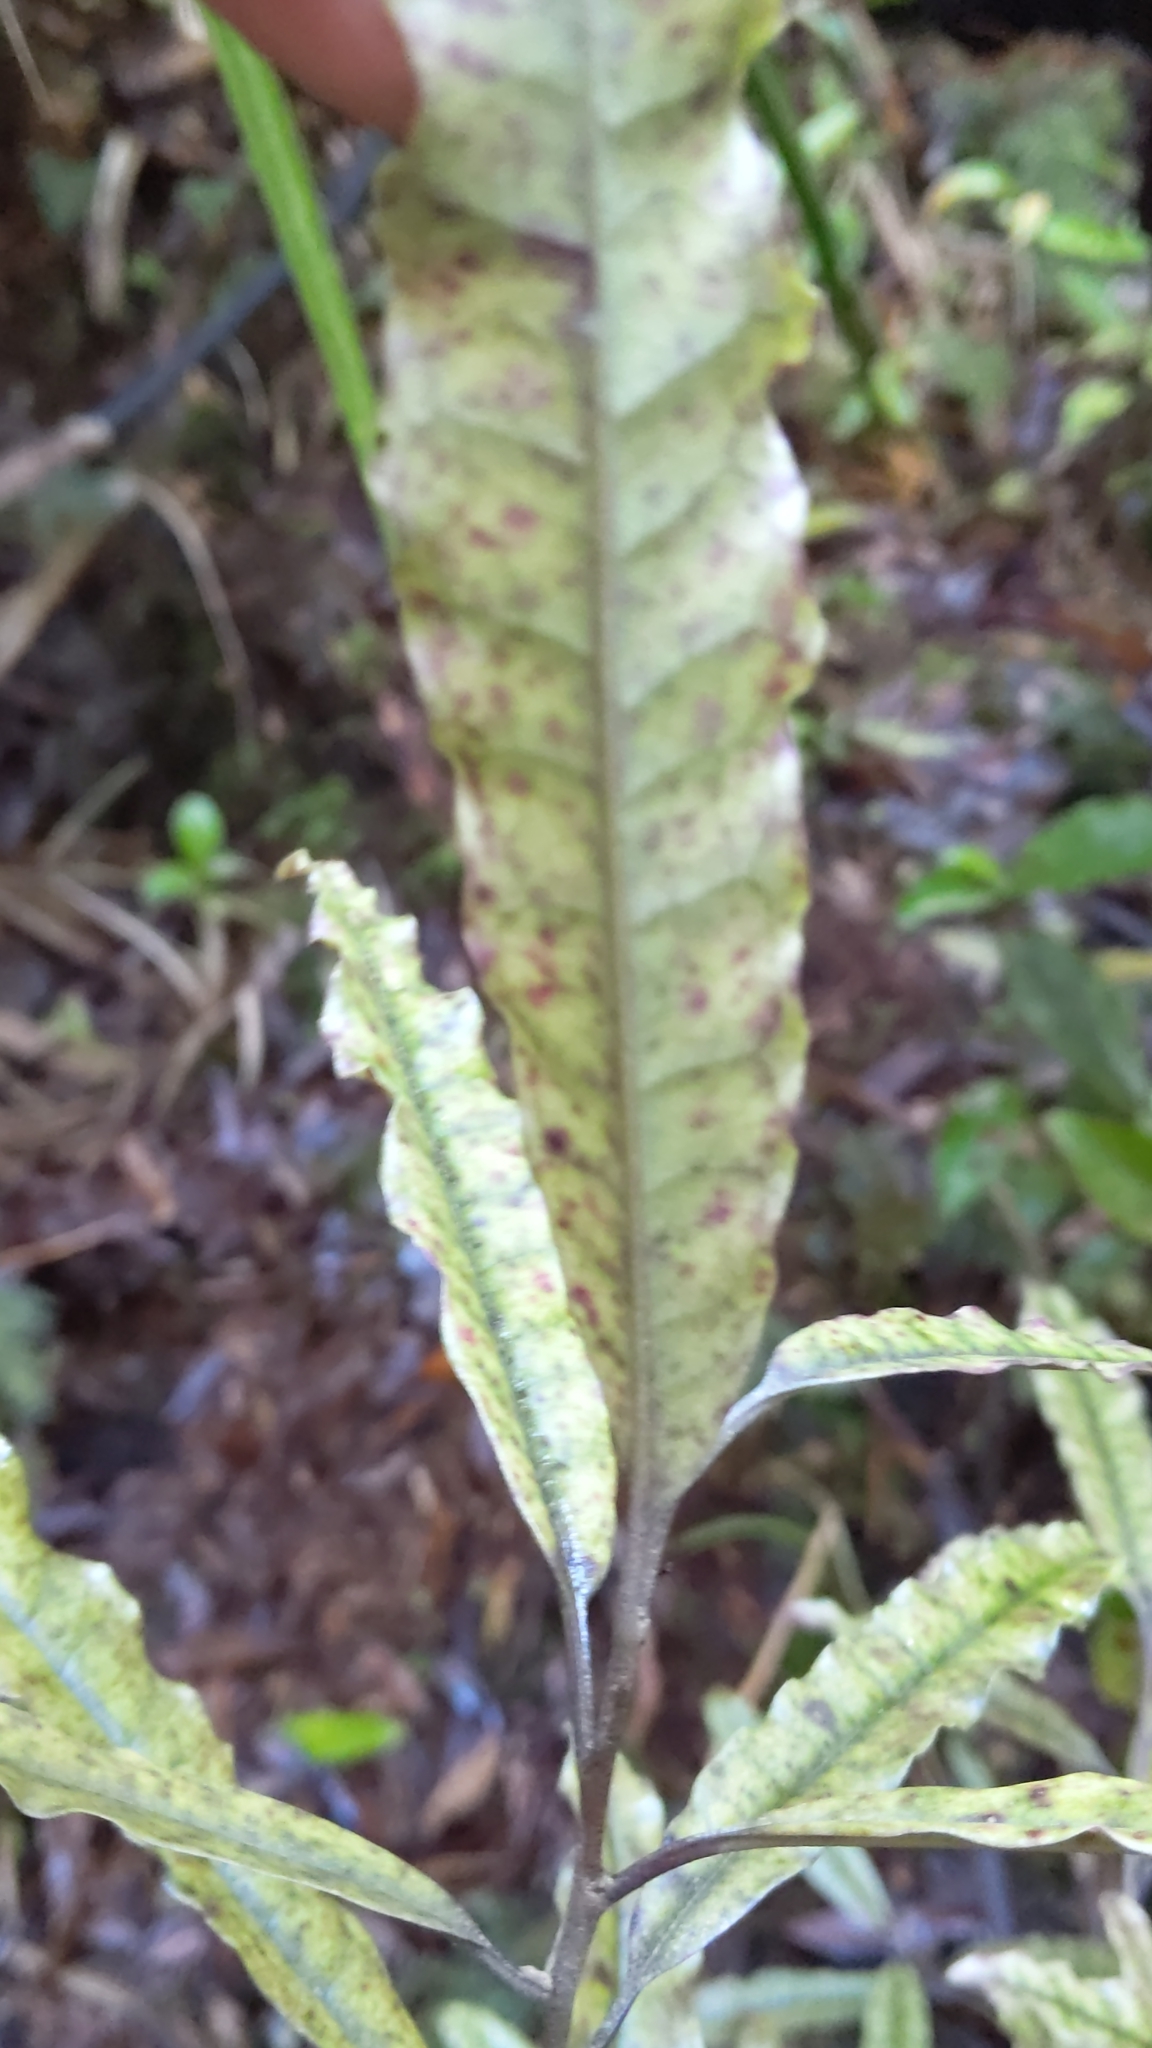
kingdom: Plantae
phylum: Tracheophyta
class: Magnoliopsida
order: Paracryphiales
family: Paracryphiaceae
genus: Quintinia
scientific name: Quintinia serrata
